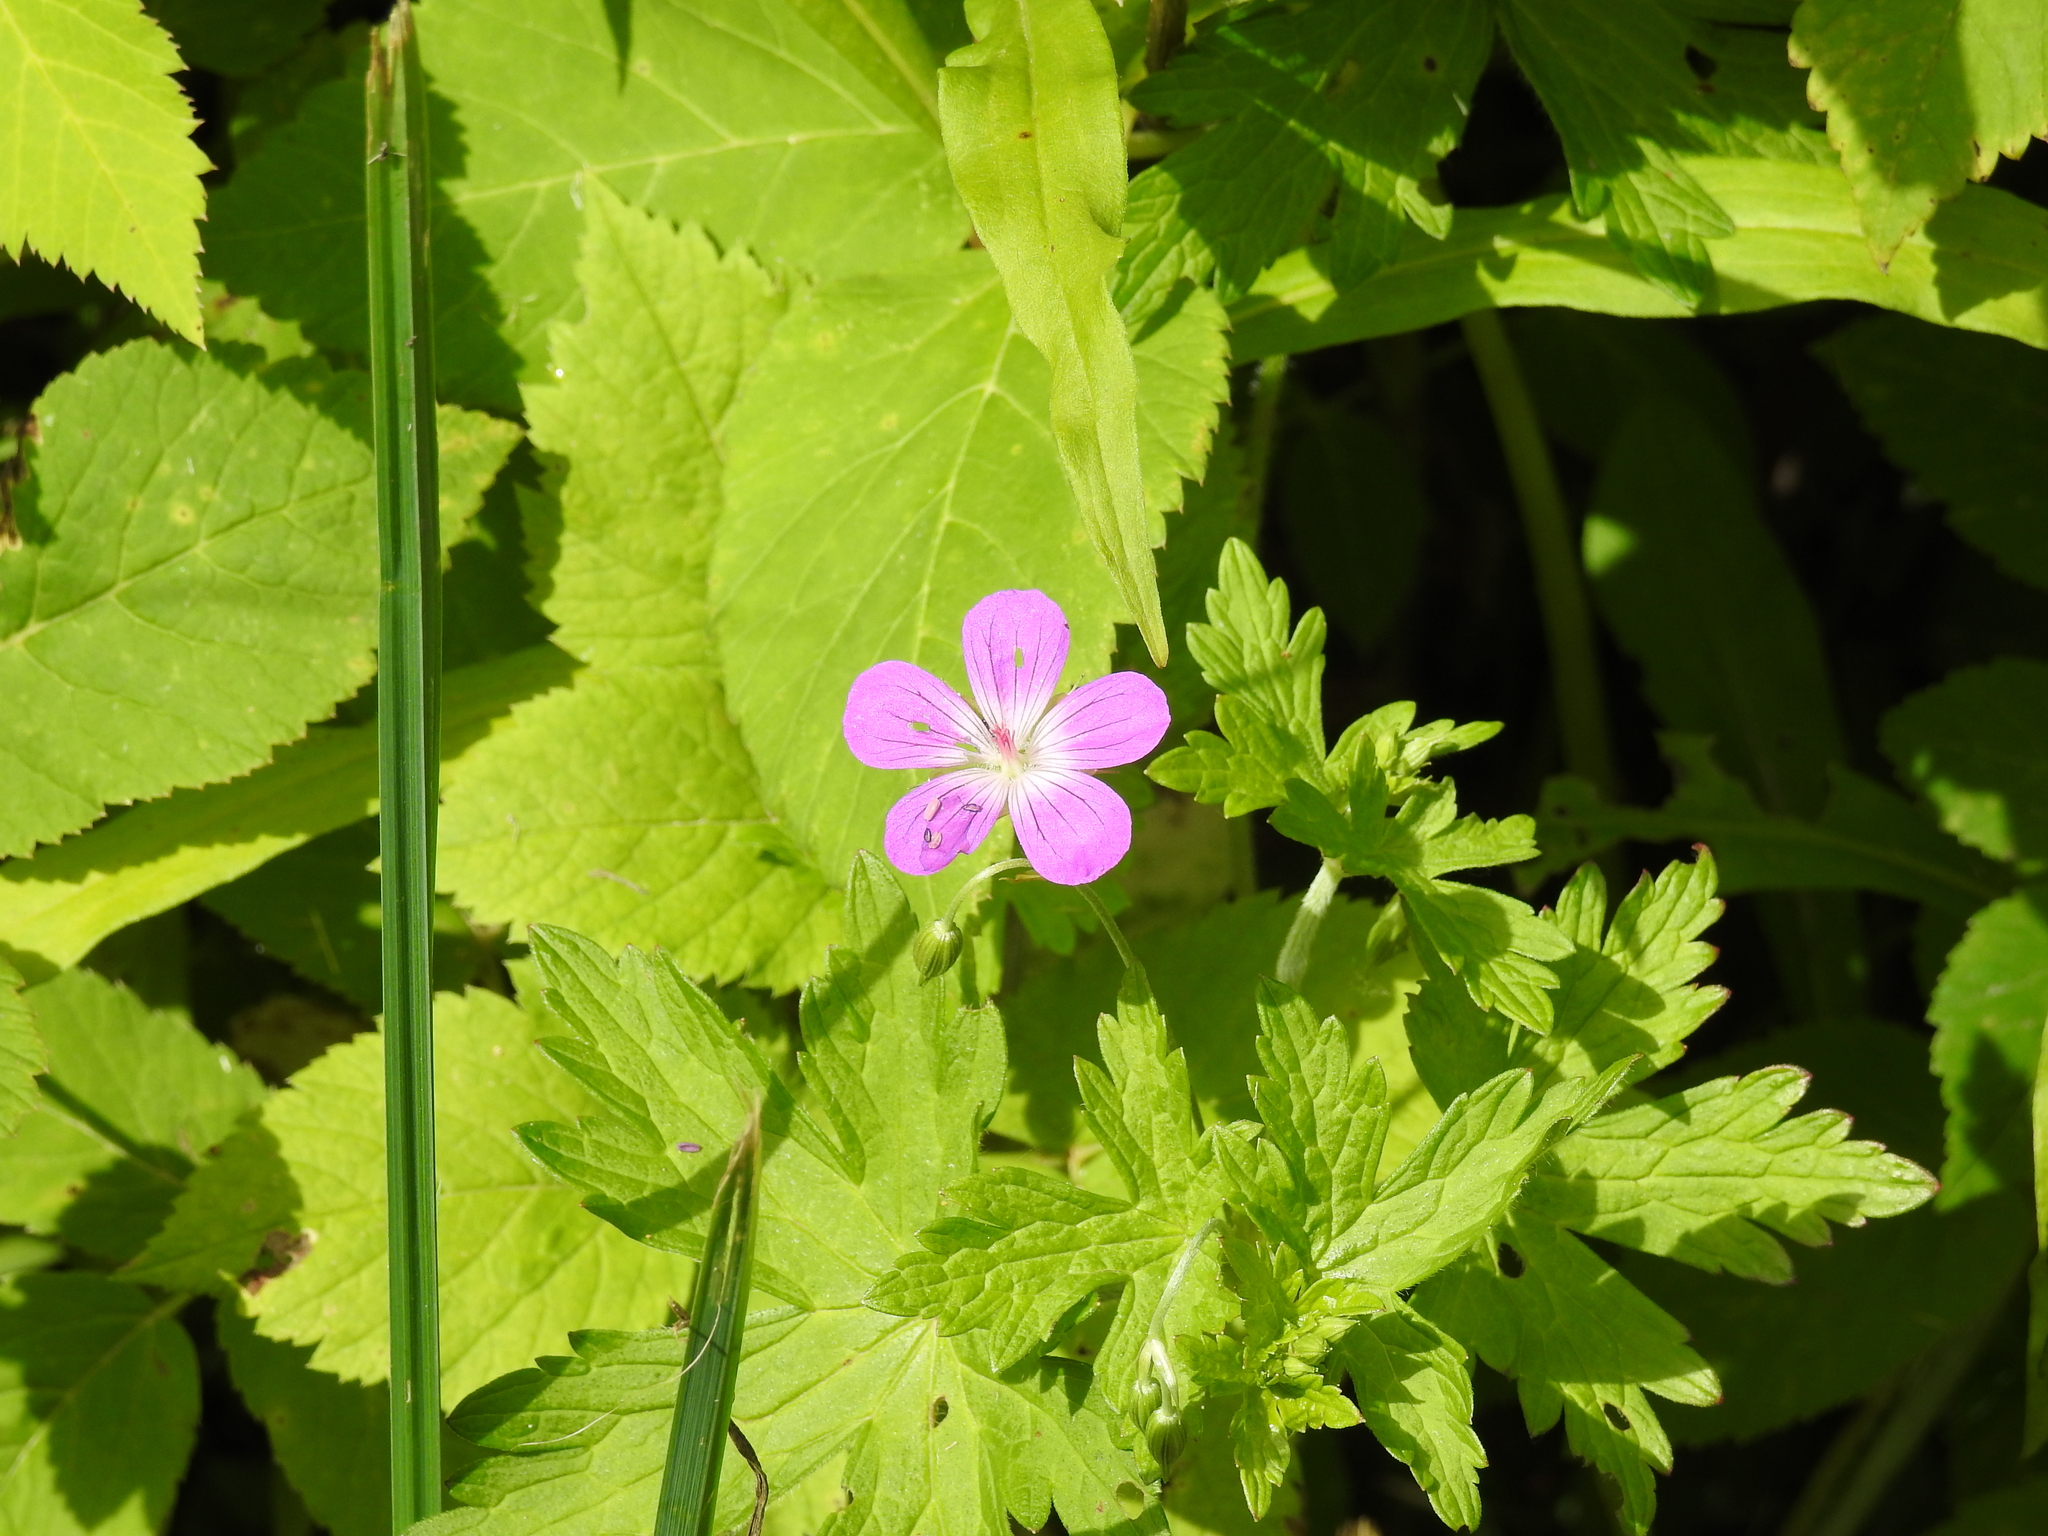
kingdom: Plantae
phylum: Tracheophyta
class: Magnoliopsida
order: Geraniales
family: Geraniaceae
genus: Geranium
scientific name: Geranium sylvaticum
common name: Wood crane's-bill
